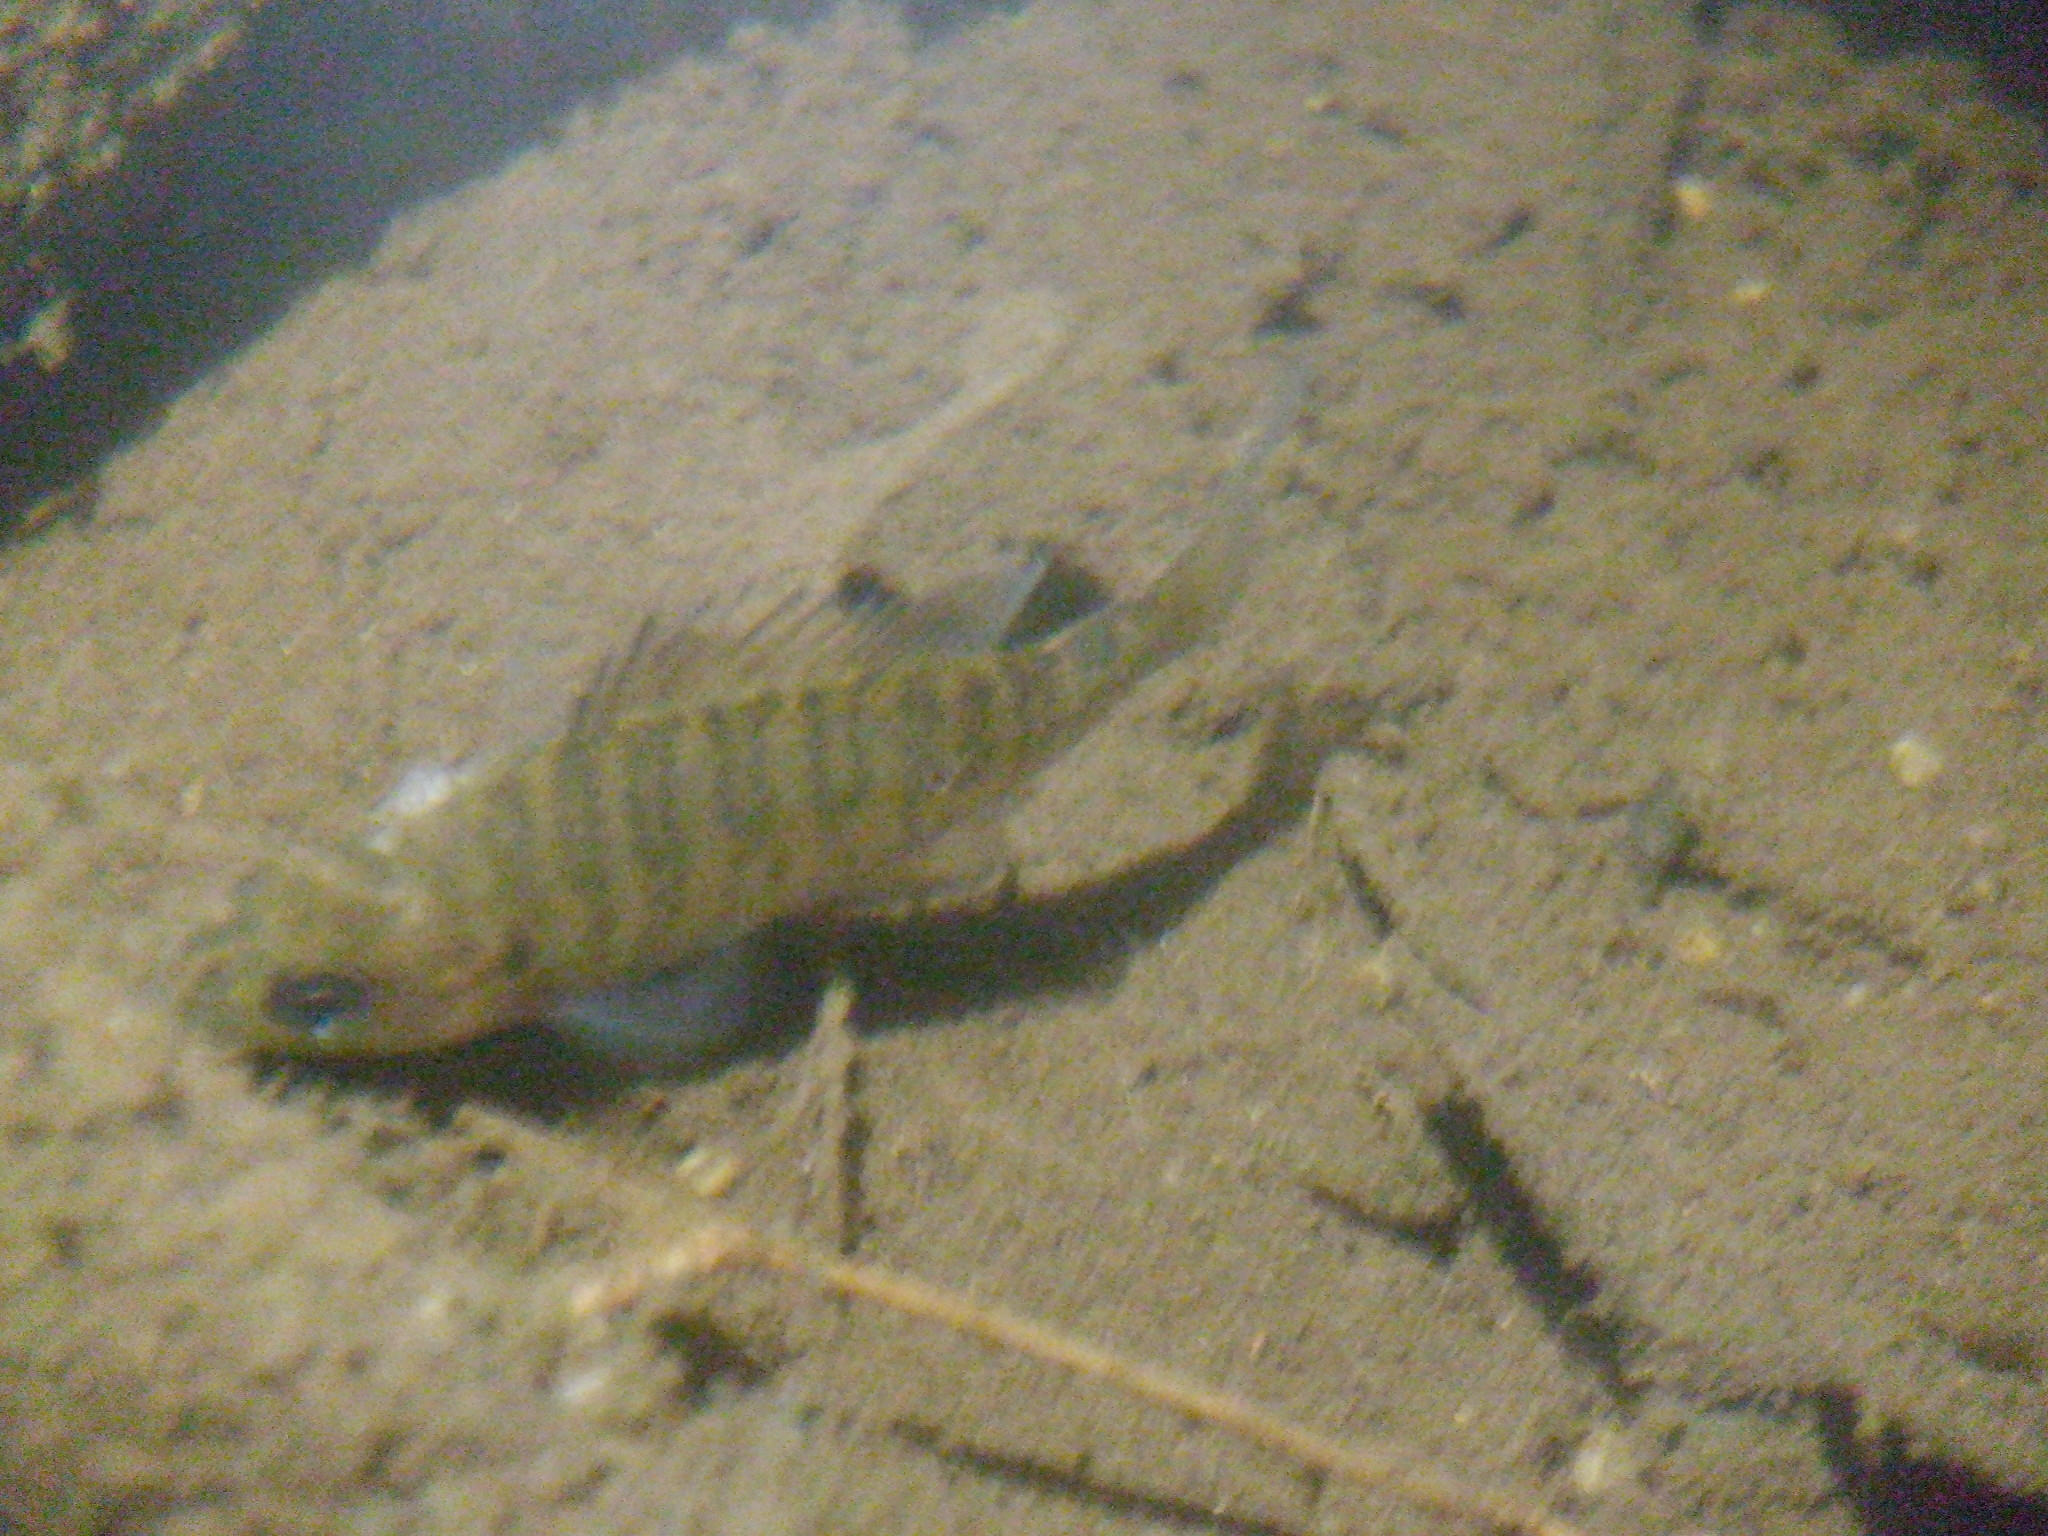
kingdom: Animalia
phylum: Chordata
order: Perciformes
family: Centrarchidae
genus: Lepomis
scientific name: Lepomis macrochirus
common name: Bluegill
